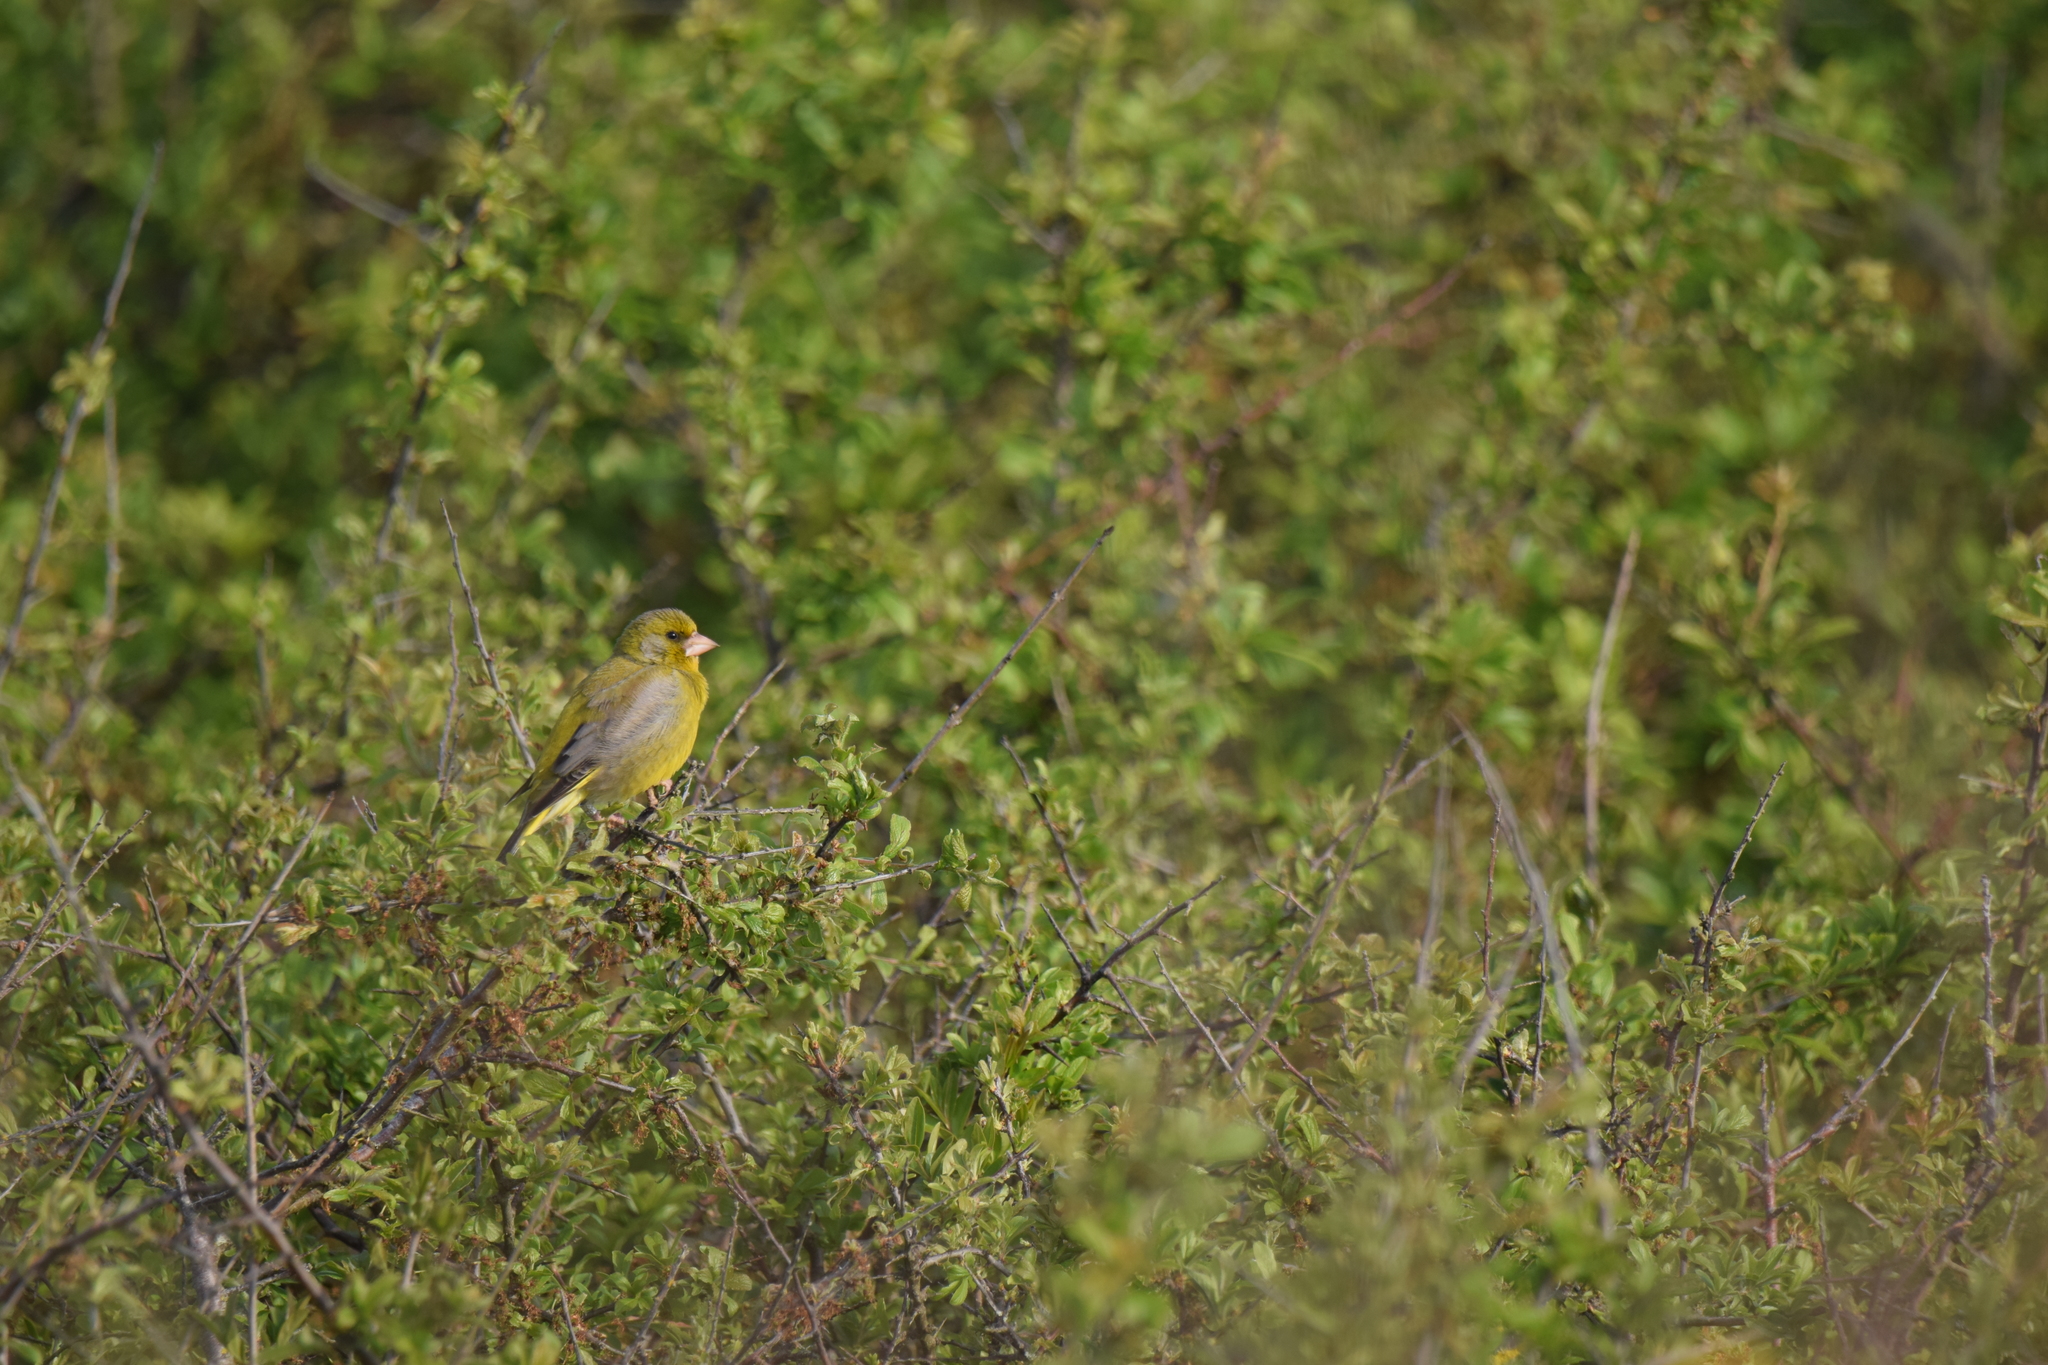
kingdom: Plantae
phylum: Tracheophyta
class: Liliopsida
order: Poales
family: Poaceae
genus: Chloris
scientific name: Chloris chloris
